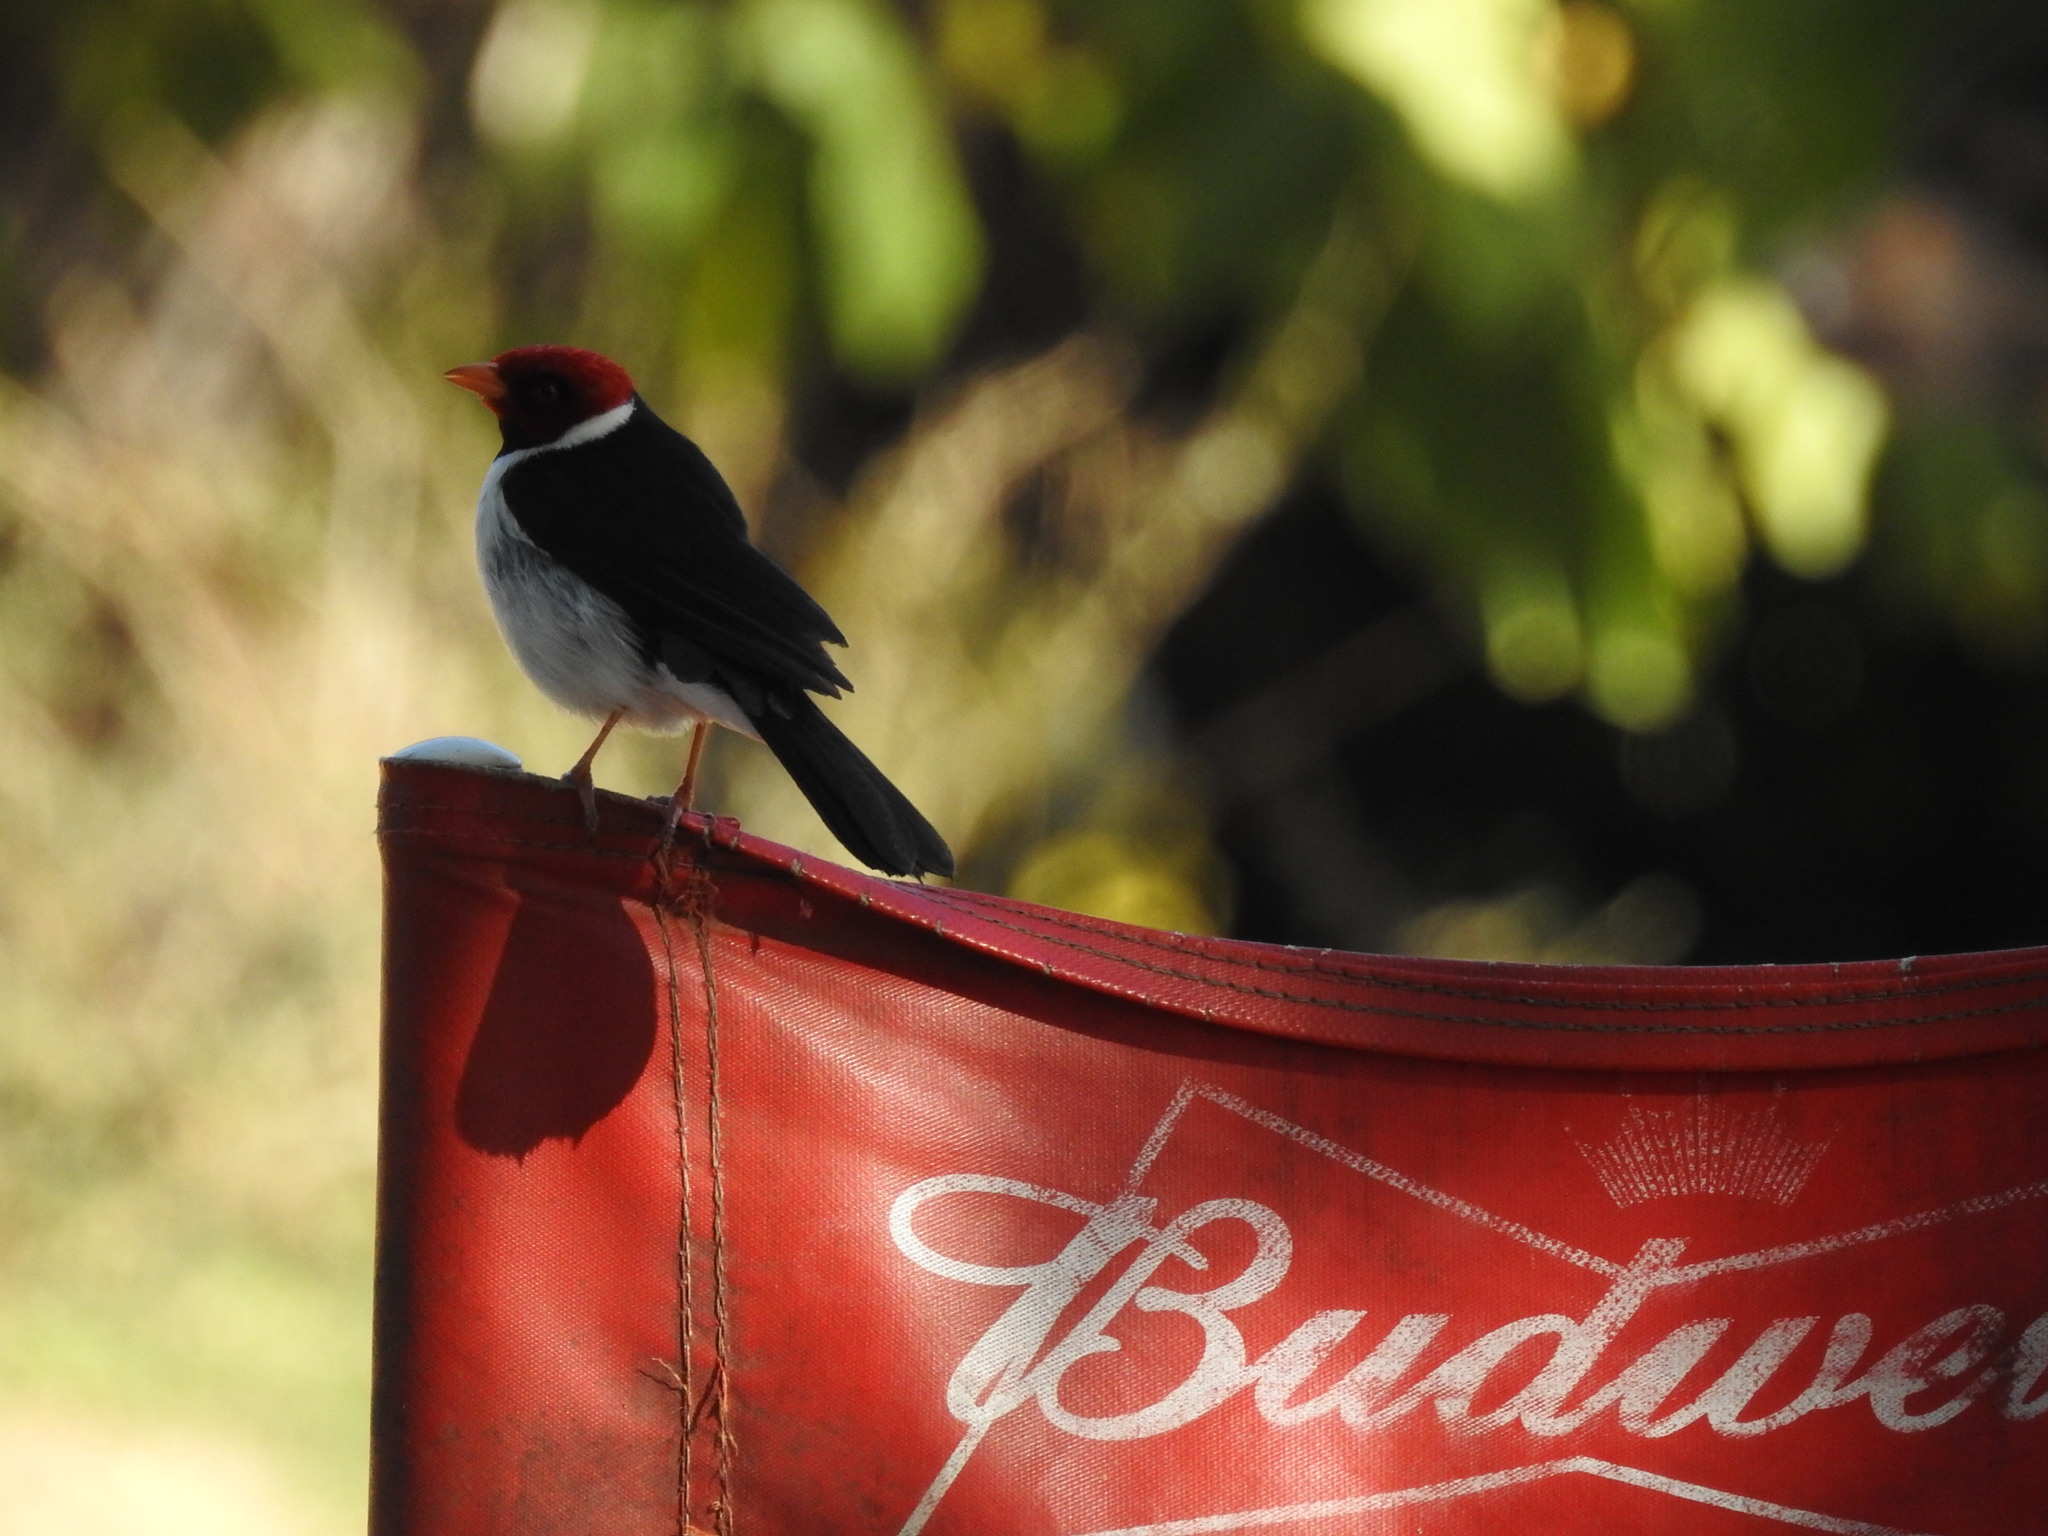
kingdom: Animalia
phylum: Chordata
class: Aves
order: Passeriformes
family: Thraupidae
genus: Paroaria
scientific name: Paroaria capitata
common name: Yellow-billed cardinal
